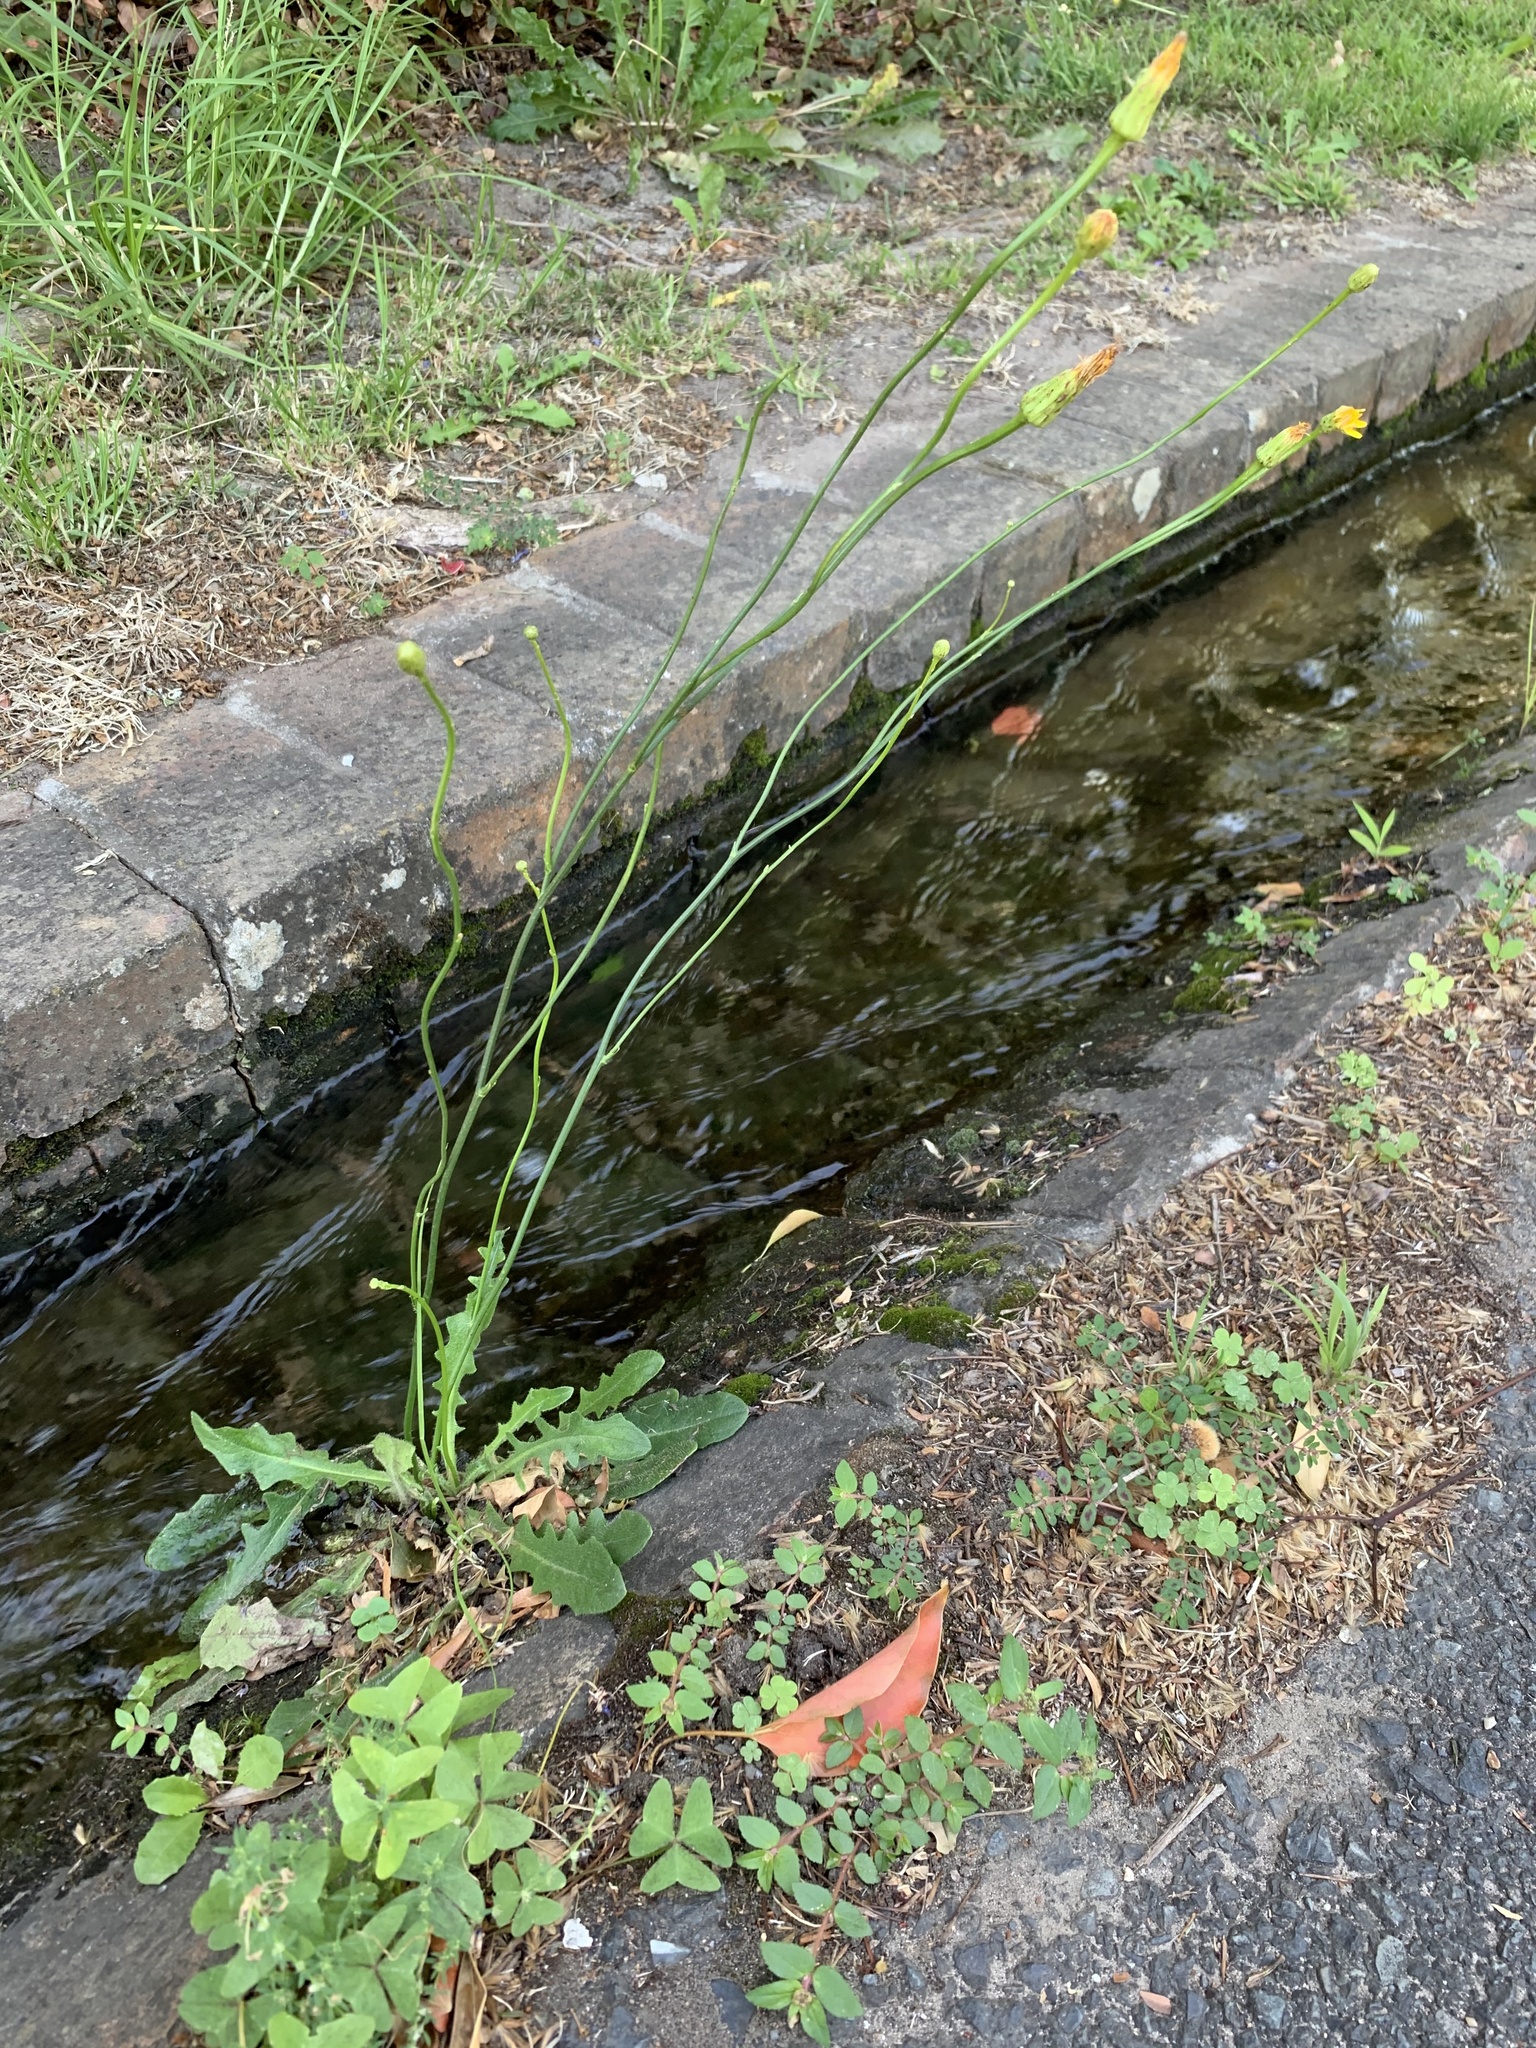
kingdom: Plantae
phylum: Tracheophyta
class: Magnoliopsida
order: Asterales
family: Asteraceae
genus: Hypochaeris
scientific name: Hypochaeris radicata
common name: Flatweed
